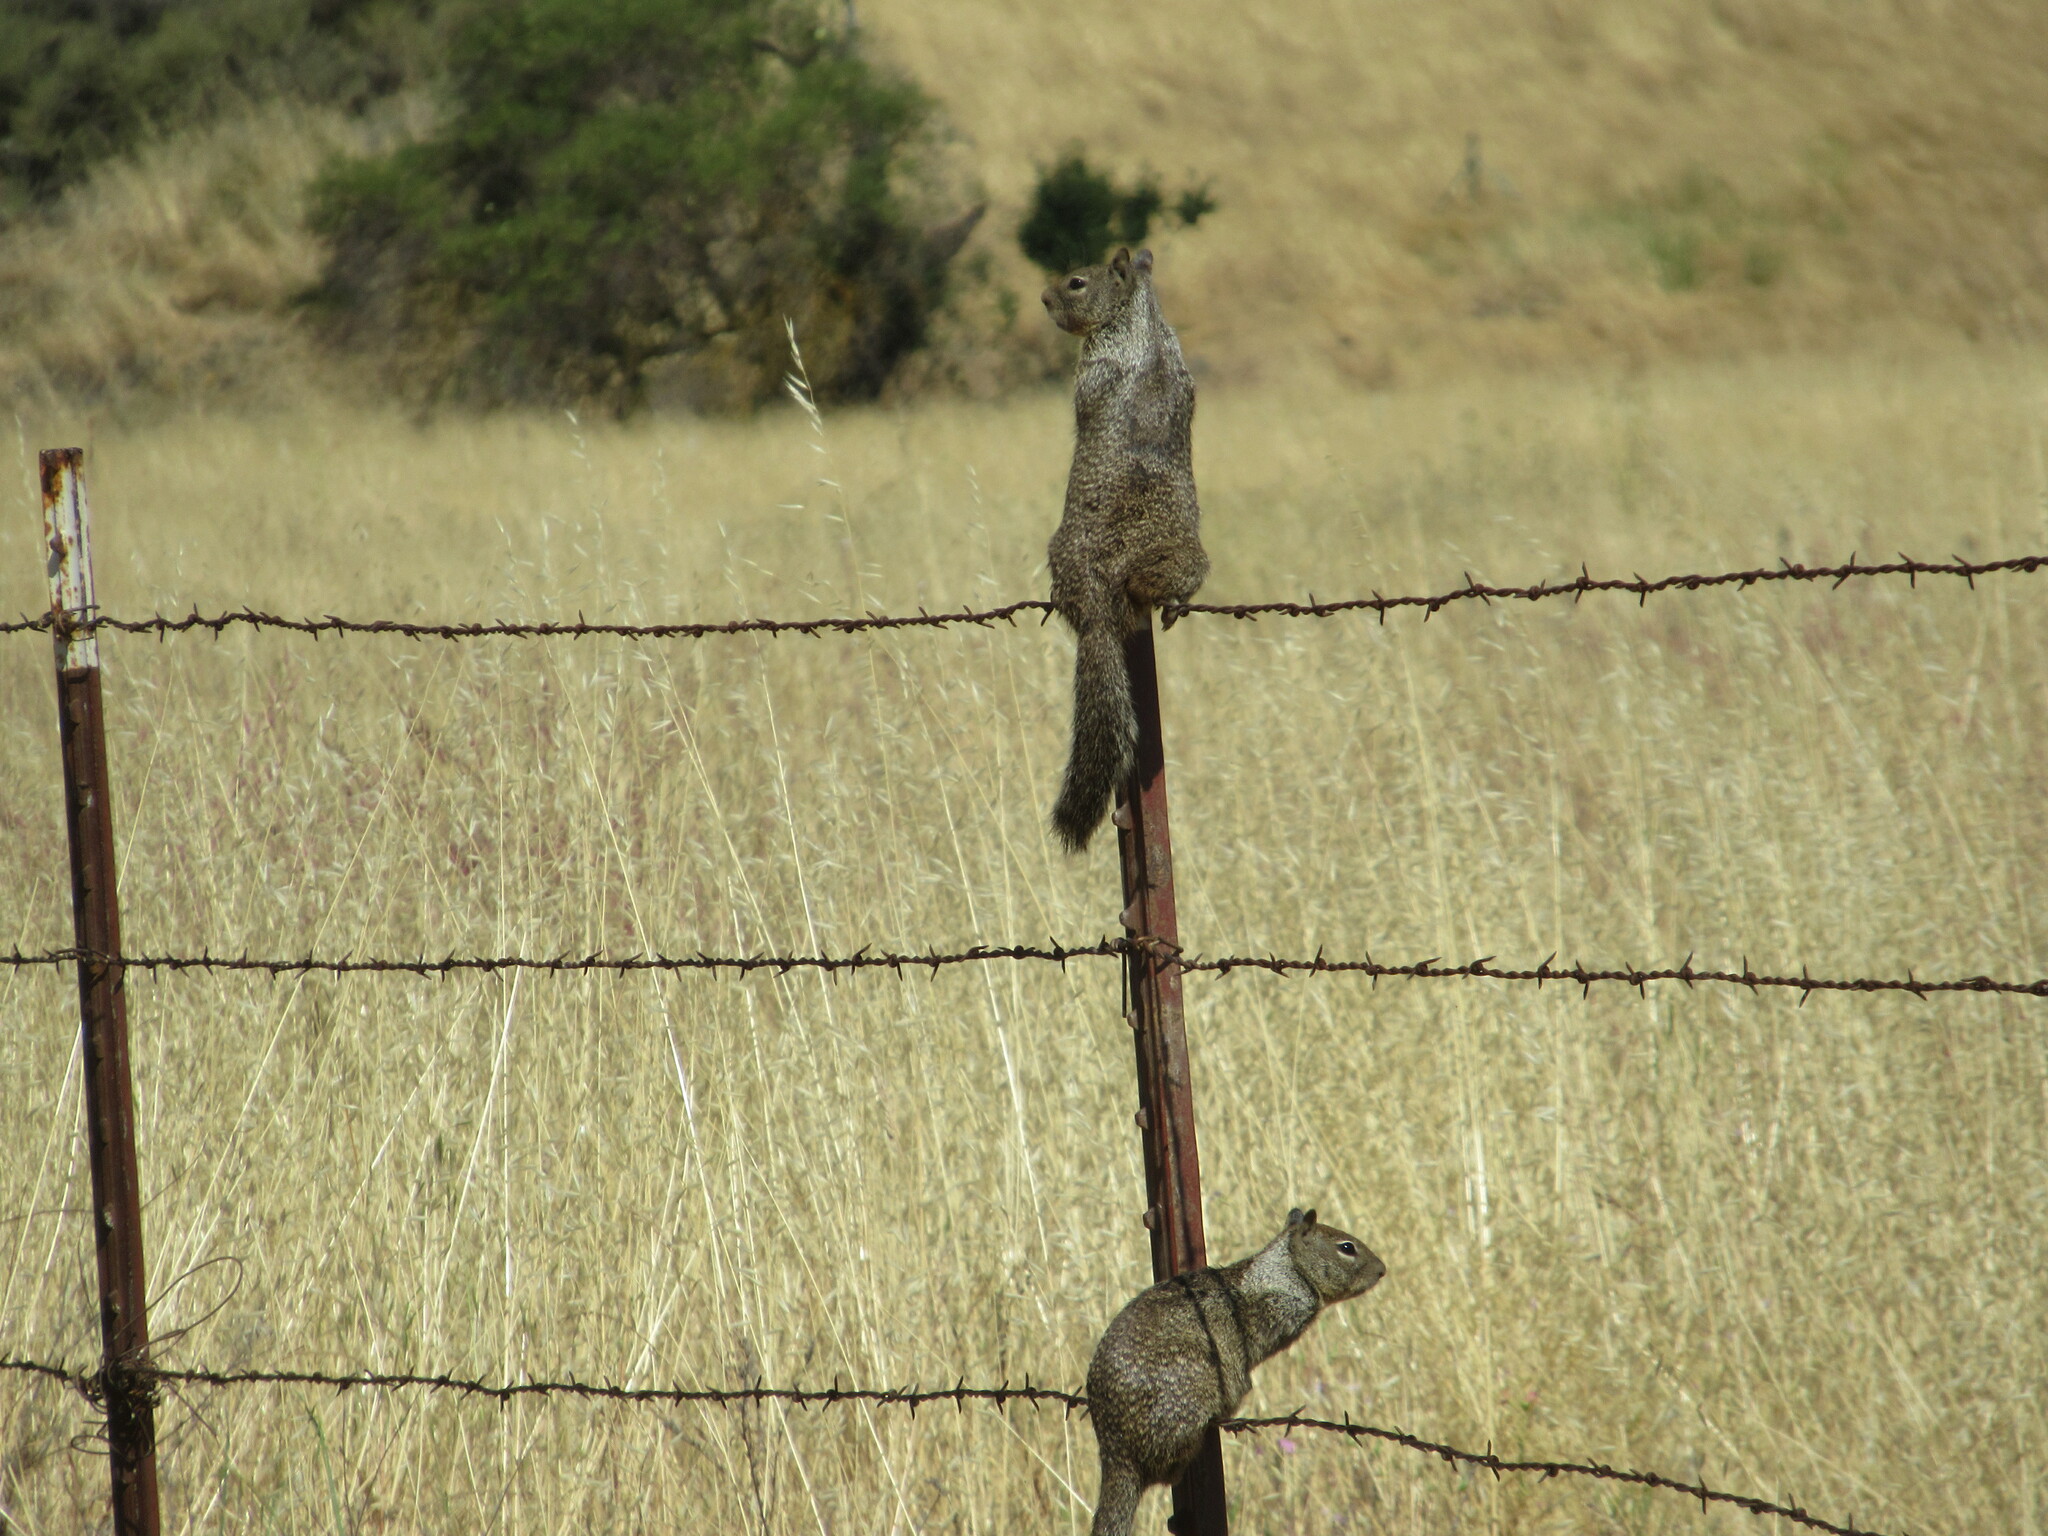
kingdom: Animalia
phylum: Chordata
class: Mammalia
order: Rodentia
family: Sciuridae
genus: Otospermophilus
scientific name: Otospermophilus beecheyi
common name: California ground squirrel
